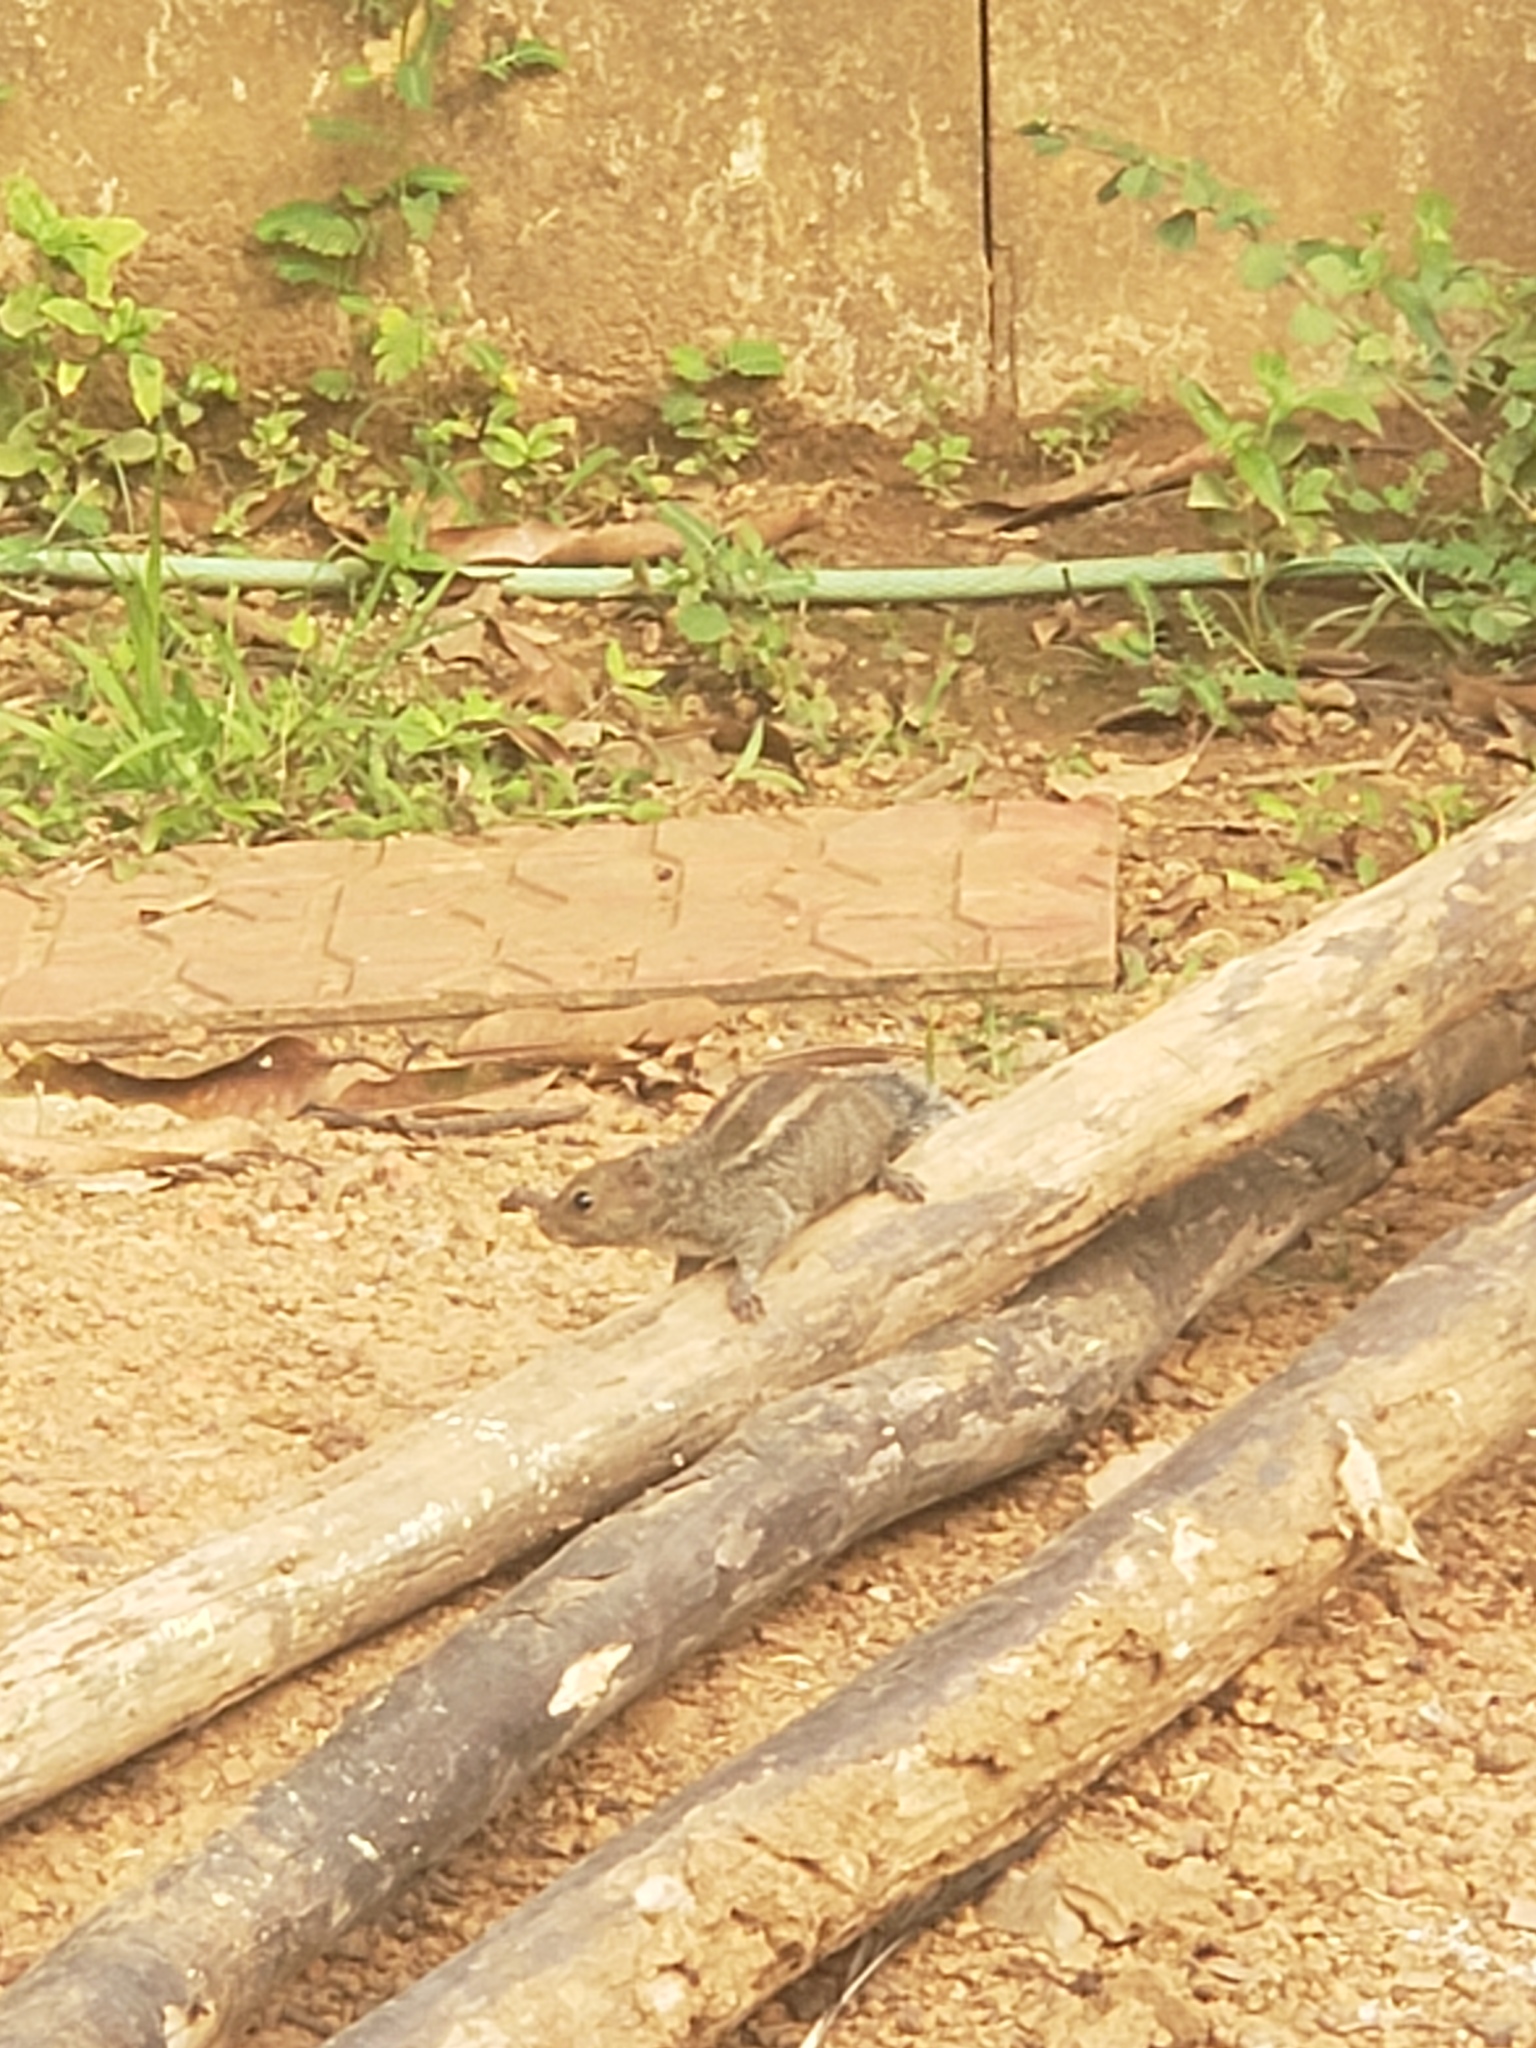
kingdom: Animalia
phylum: Chordata
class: Mammalia
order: Rodentia
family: Sciuridae
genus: Funambulus
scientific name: Funambulus palmarum
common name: Indian palm squirrel
